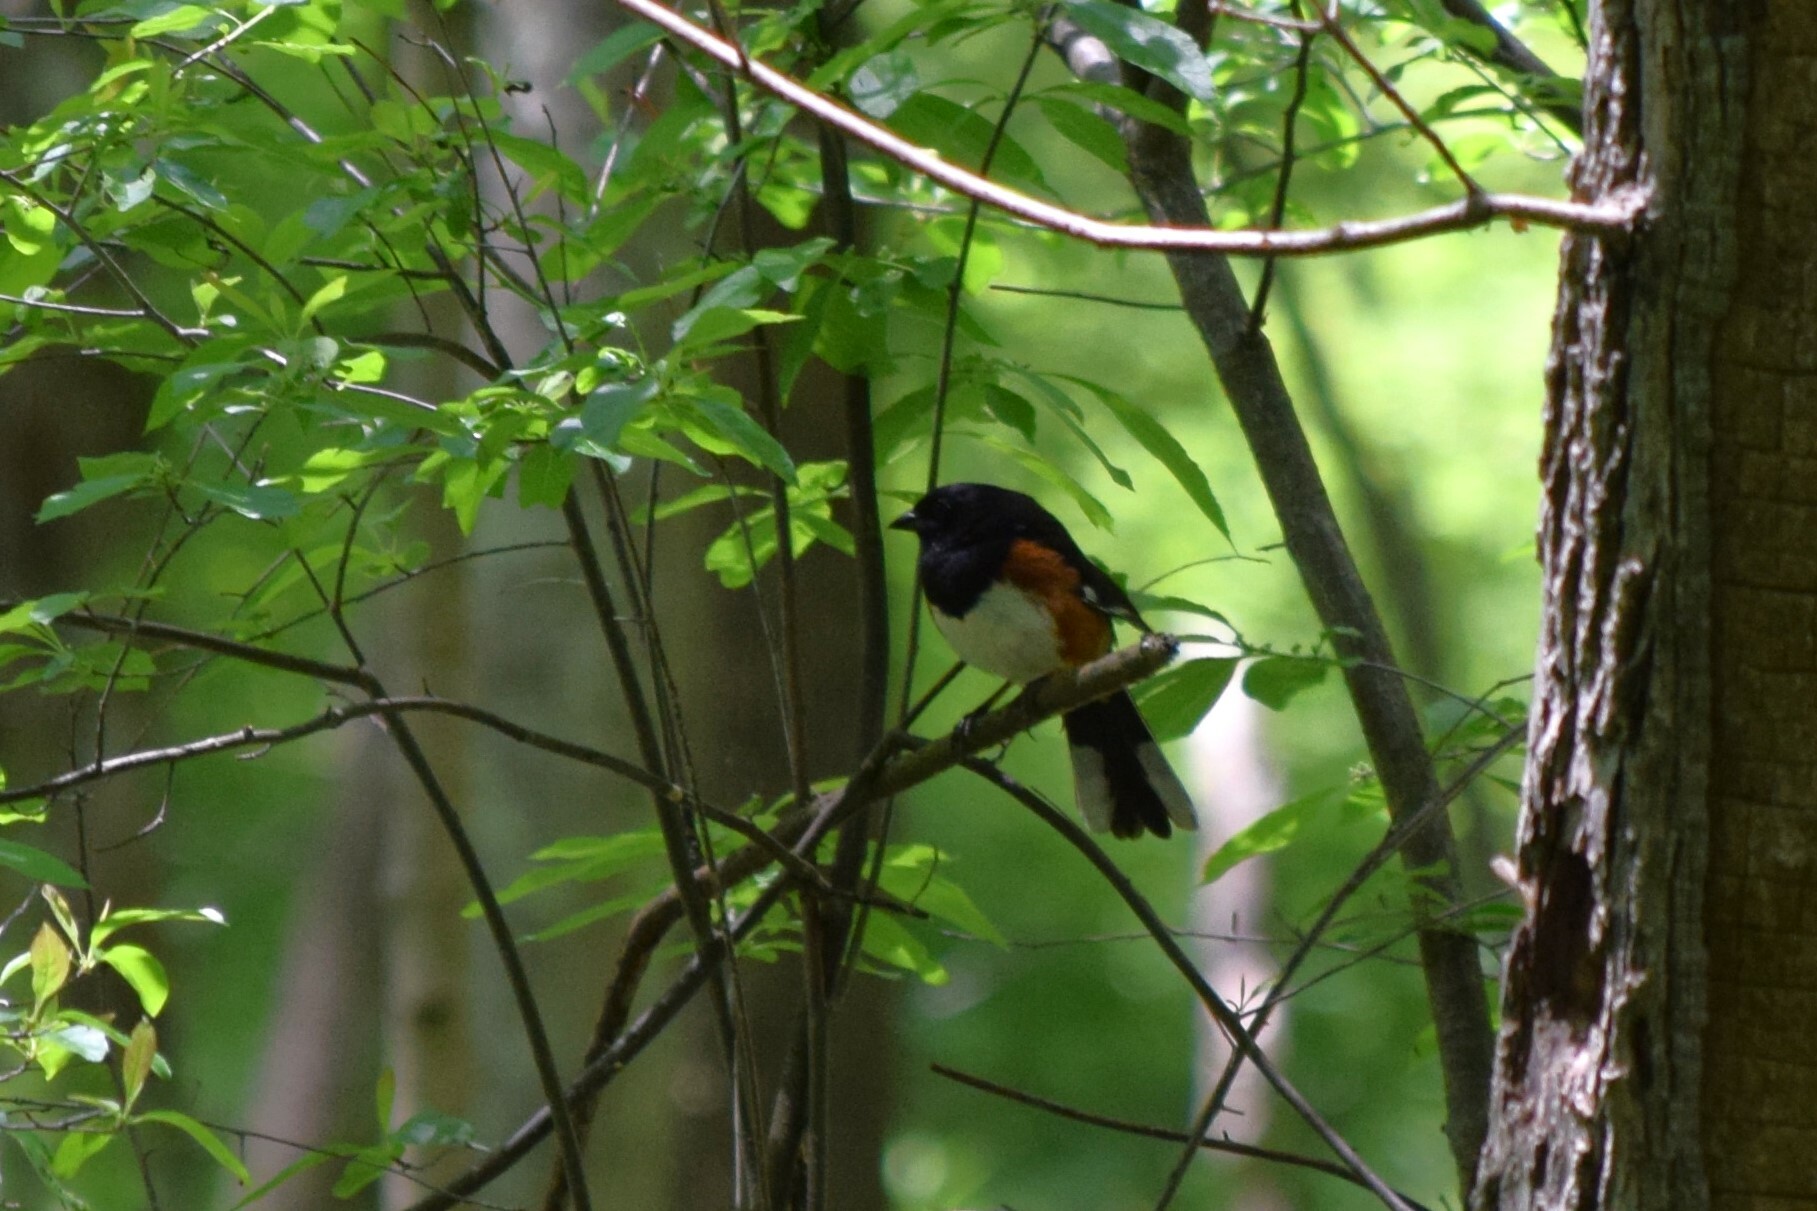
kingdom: Animalia
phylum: Chordata
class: Aves
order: Passeriformes
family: Passerellidae
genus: Pipilo
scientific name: Pipilo erythrophthalmus
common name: Eastern towhee
